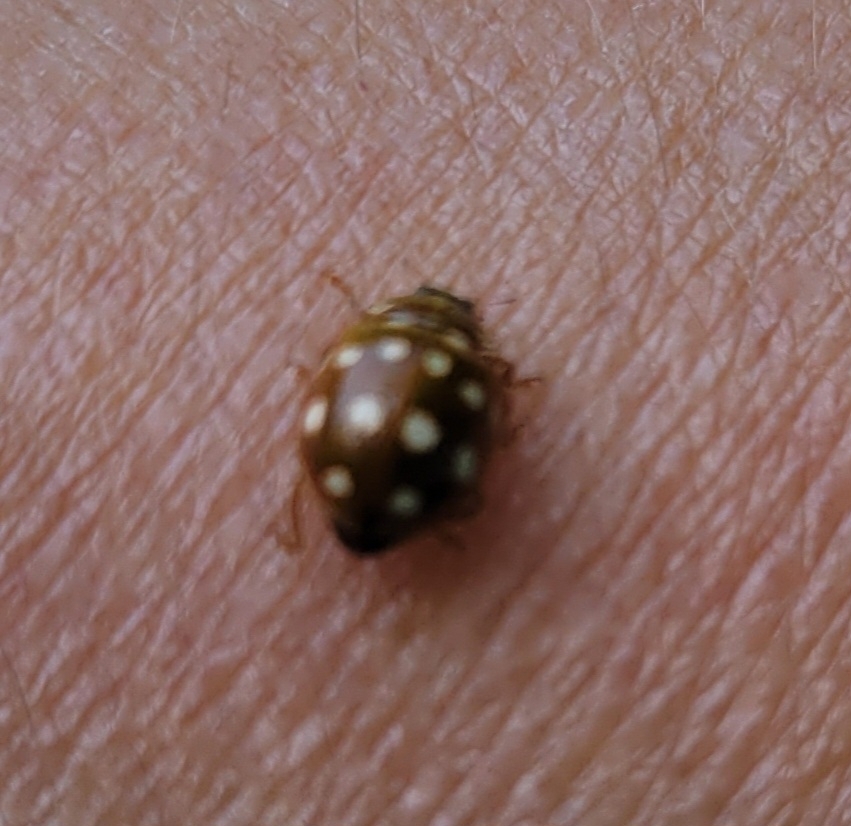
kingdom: Animalia
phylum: Arthropoda
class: Insecta
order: Coleoptera
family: Coccinellidae
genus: Calvia
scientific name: Calvia quatuordecimguttata
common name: Cream-spot ladybird
